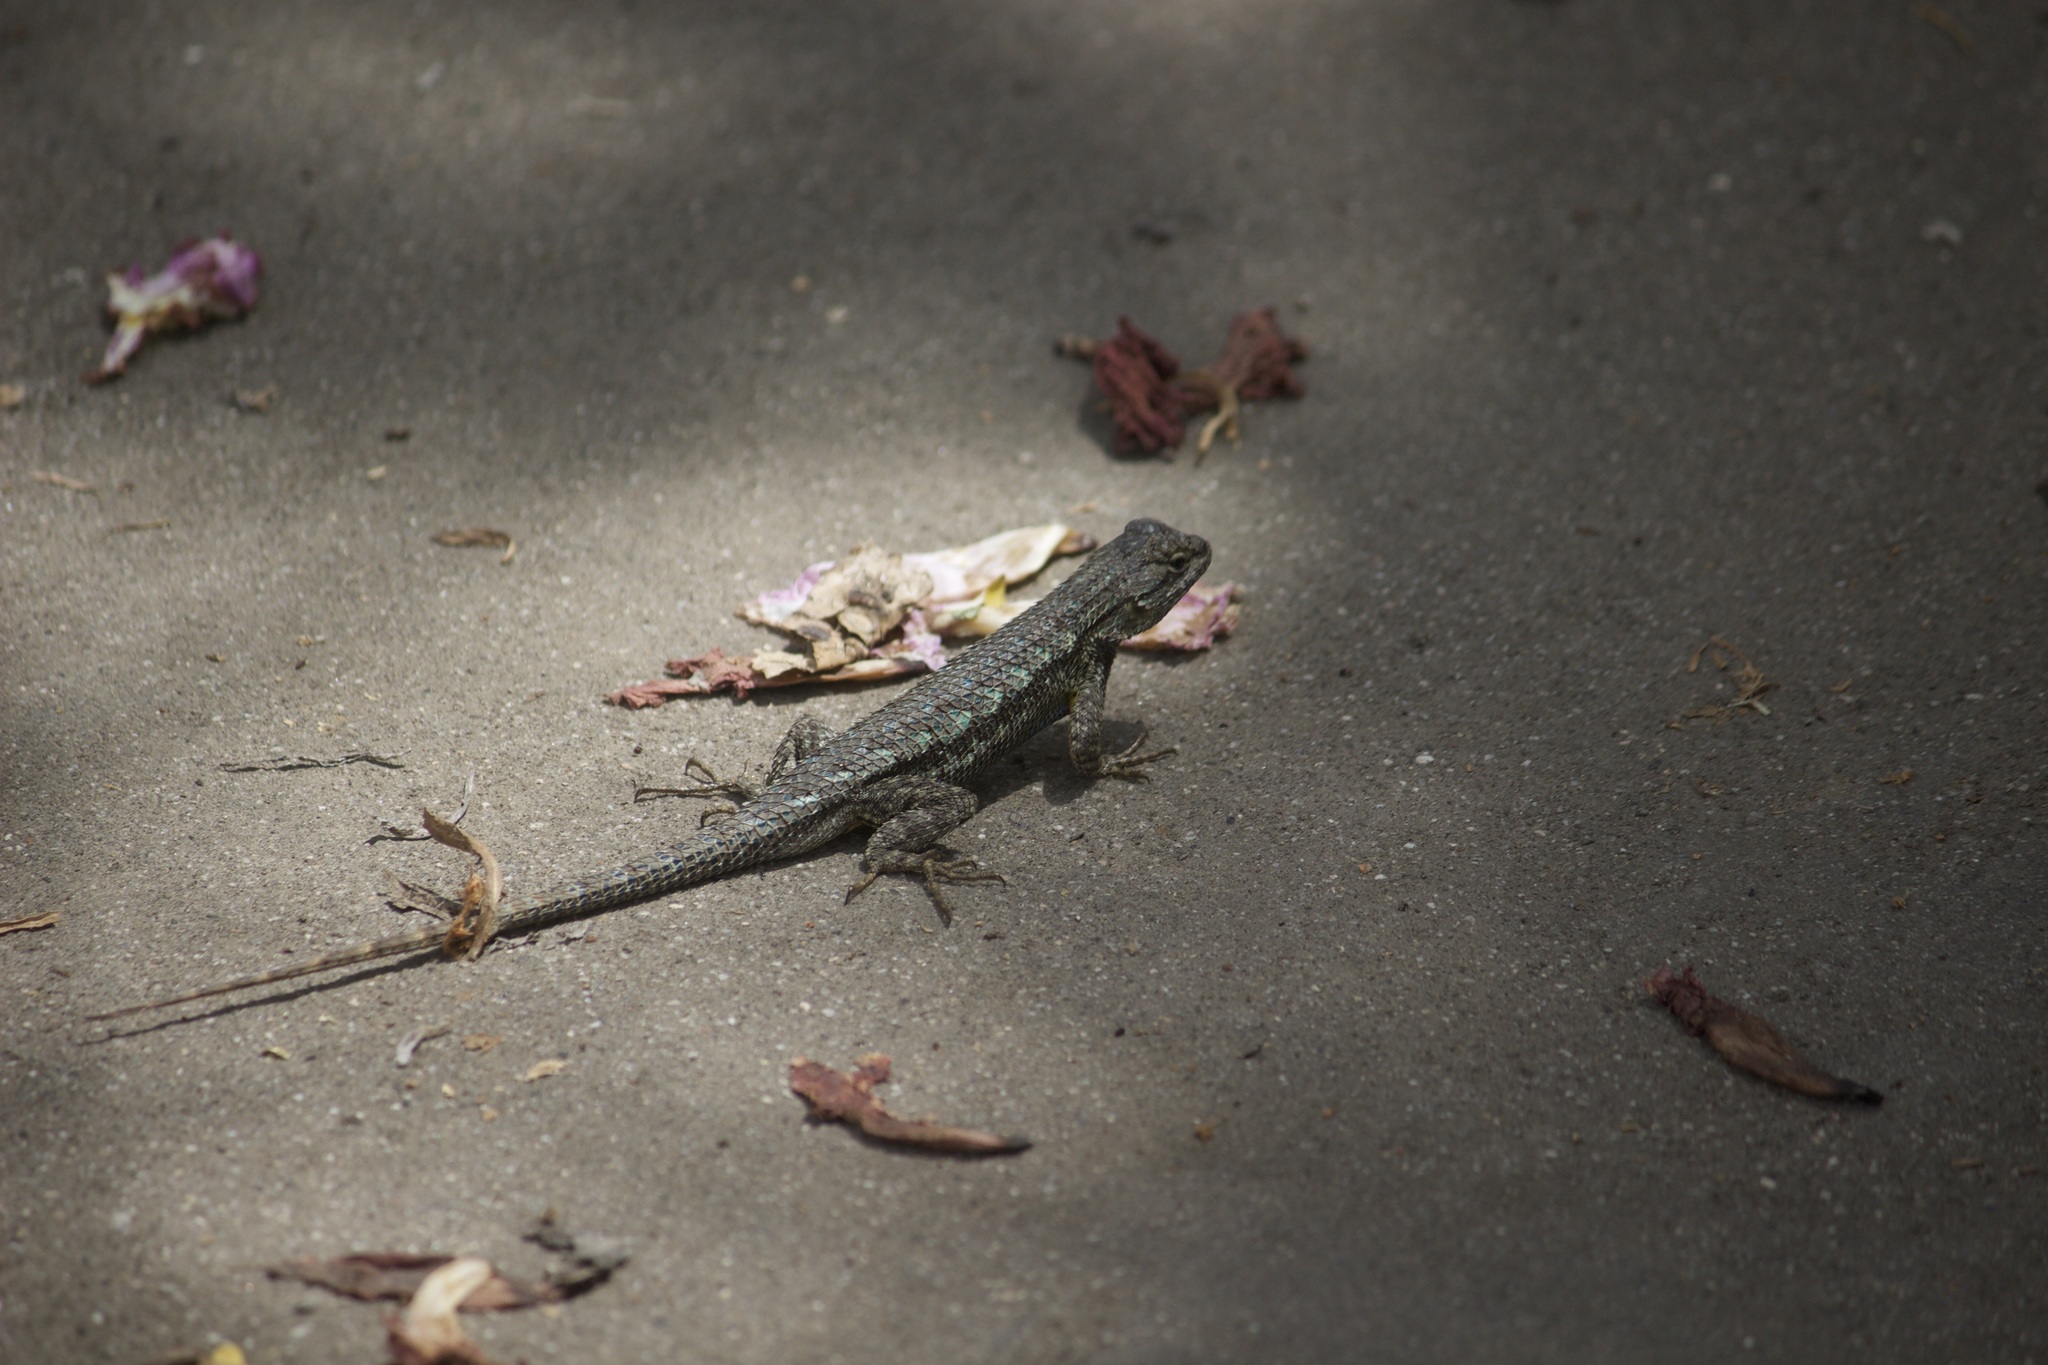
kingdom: Animalia
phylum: Chordata
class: Squamata
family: Phrynosomatidae
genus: Sceloporus
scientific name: Sceloporus occidentalis
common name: Western fence lizard
